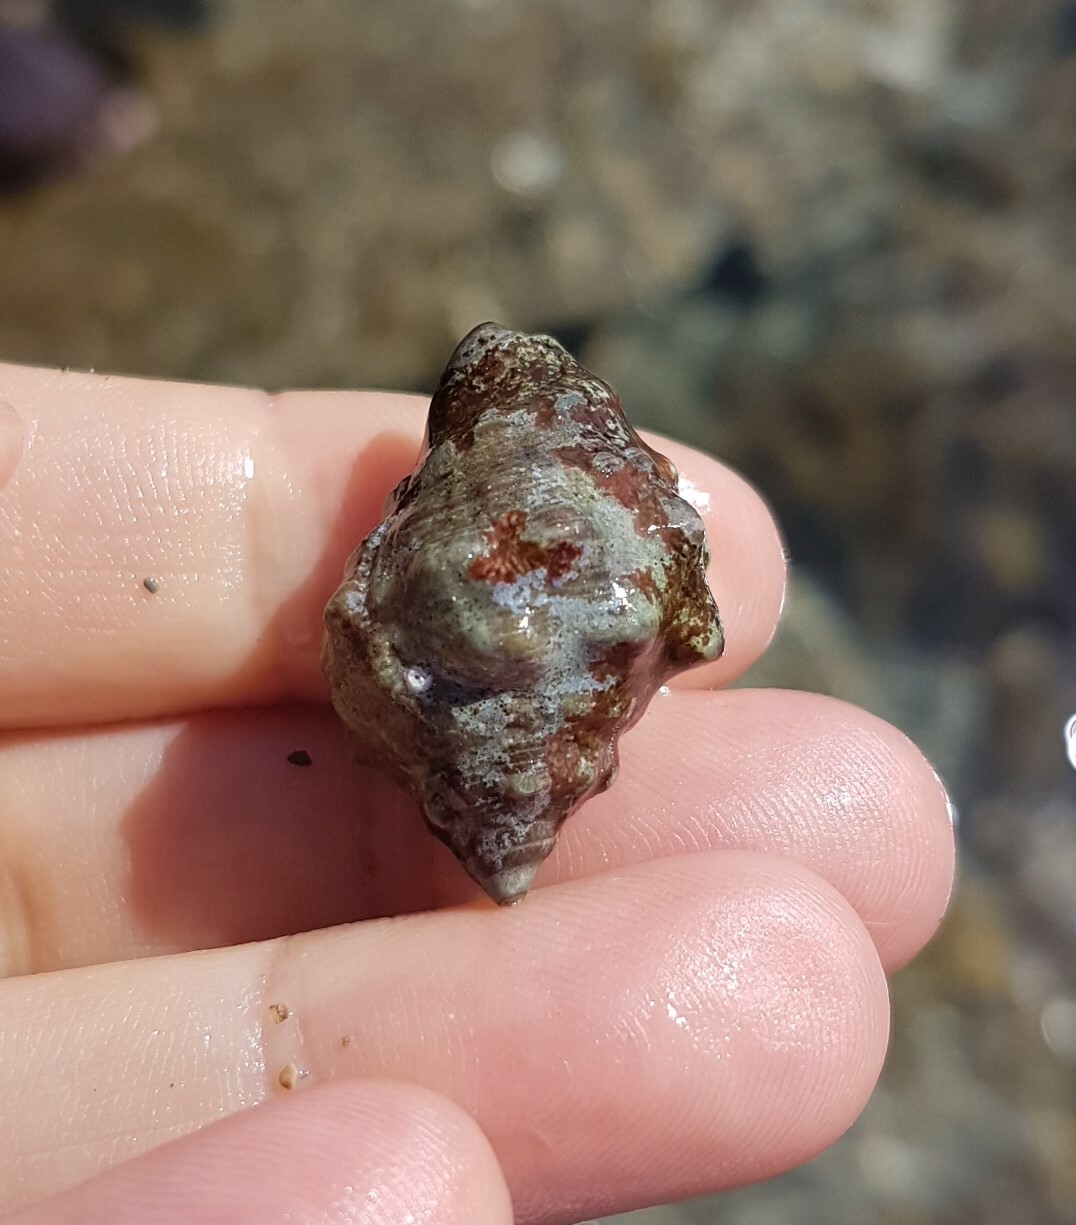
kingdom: Animalia
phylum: Mollusca
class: Gastropoda
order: Neogastropoda
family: Muricidae
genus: Stramonita
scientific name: Stramonita haemastoma
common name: Florida dog winkle
